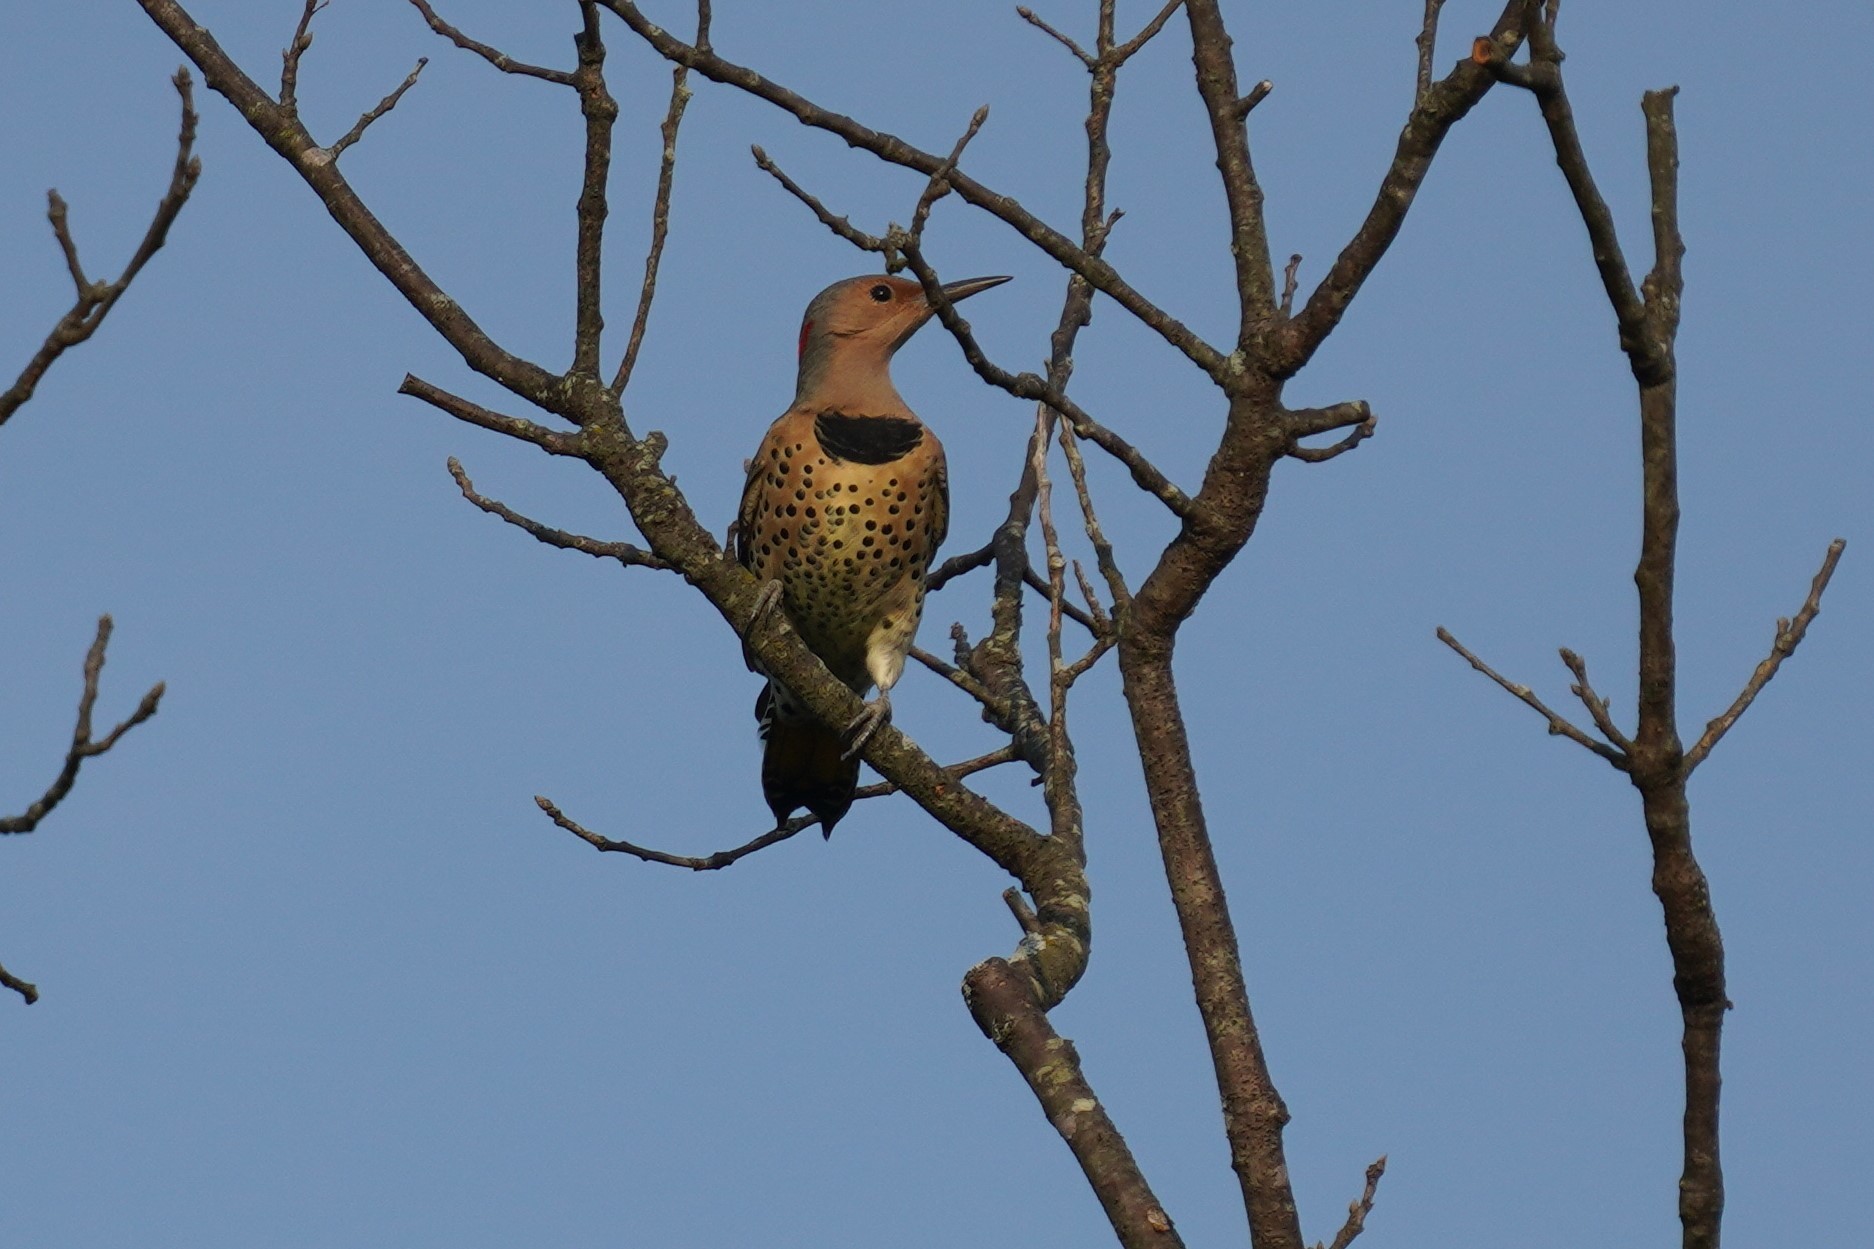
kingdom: Animalia
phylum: Chordata
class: Aves
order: Piciformes
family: Picidae
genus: Colaptes
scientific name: Colaptes auratus
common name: Northern flicker
